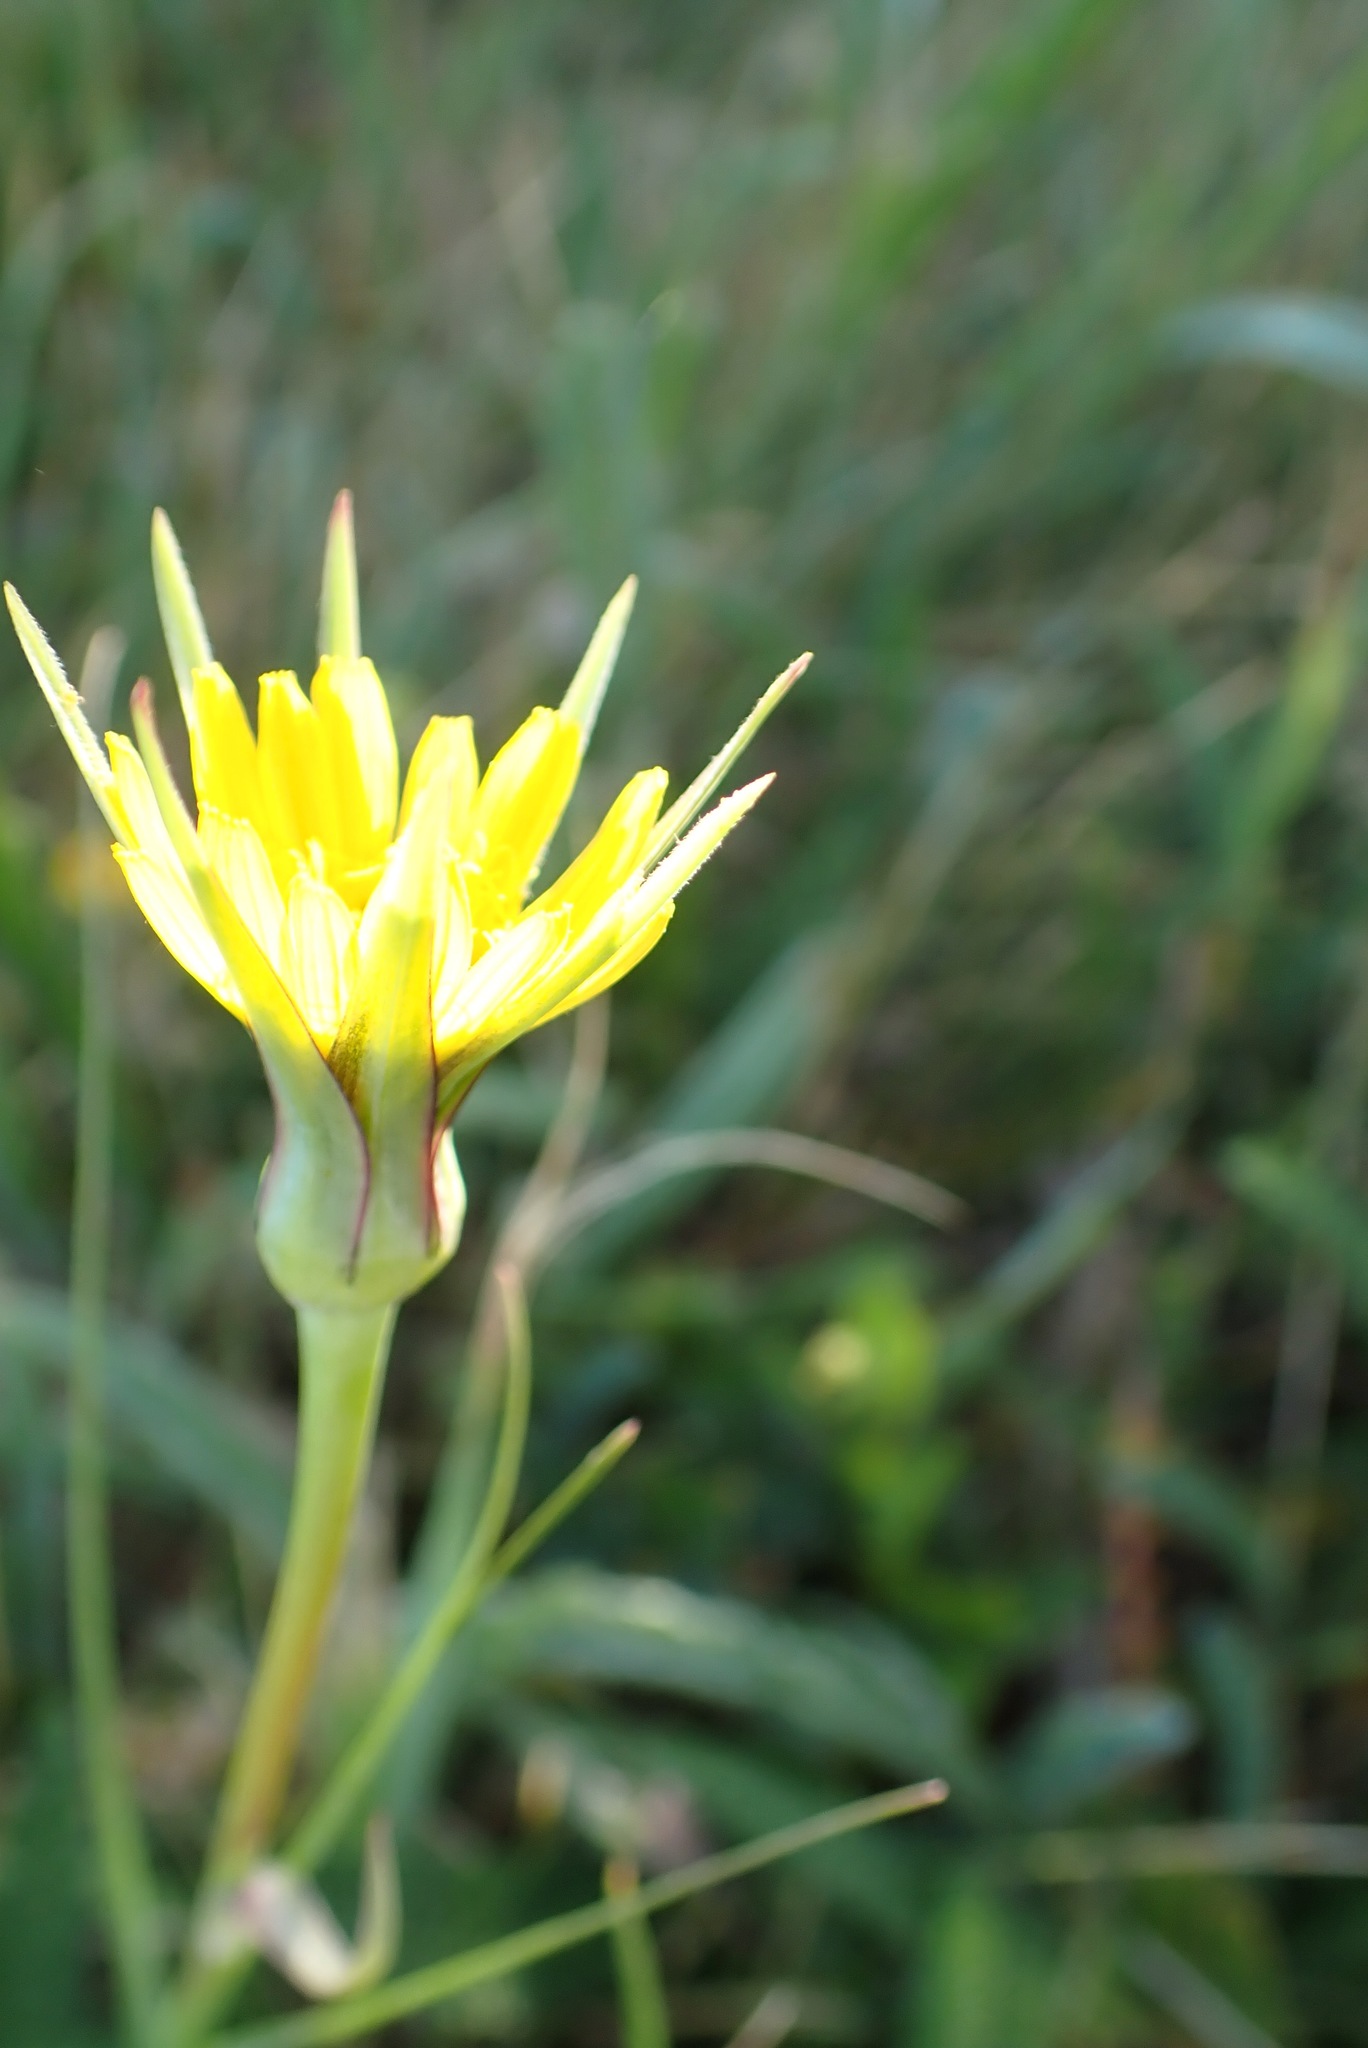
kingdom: Plantae
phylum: Tracheophyta
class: Magnoliopsida
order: Asterales
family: Asteraceae
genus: Tragopogon
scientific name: Tragopogon pratensis
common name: Goat's-beard
